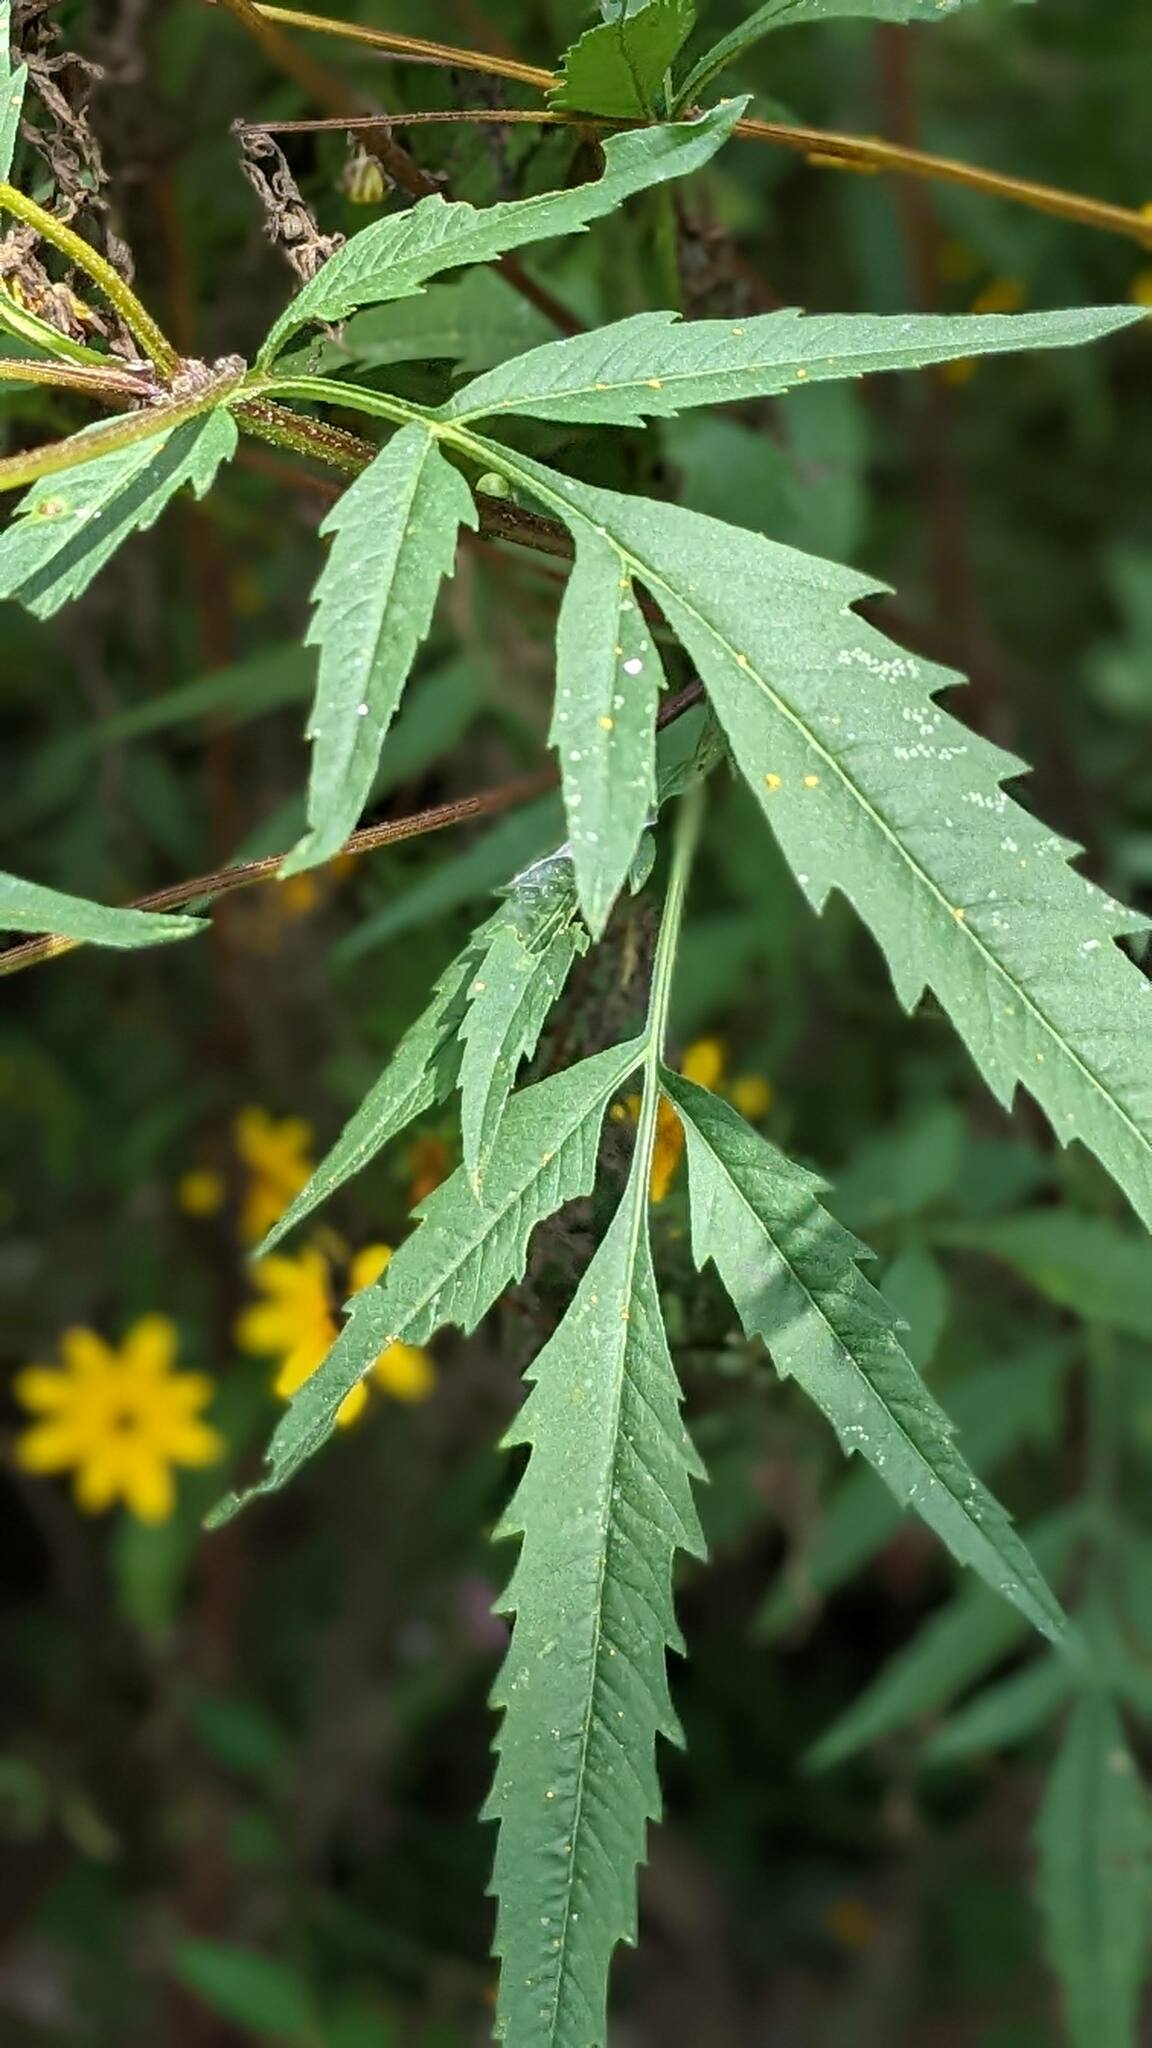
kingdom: Plantae
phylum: Tracheophyta
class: Magnoliopsida
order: Asterales
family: Asteraceae
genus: Bidens
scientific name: Bidens polylepis
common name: Awnless beggarticks
